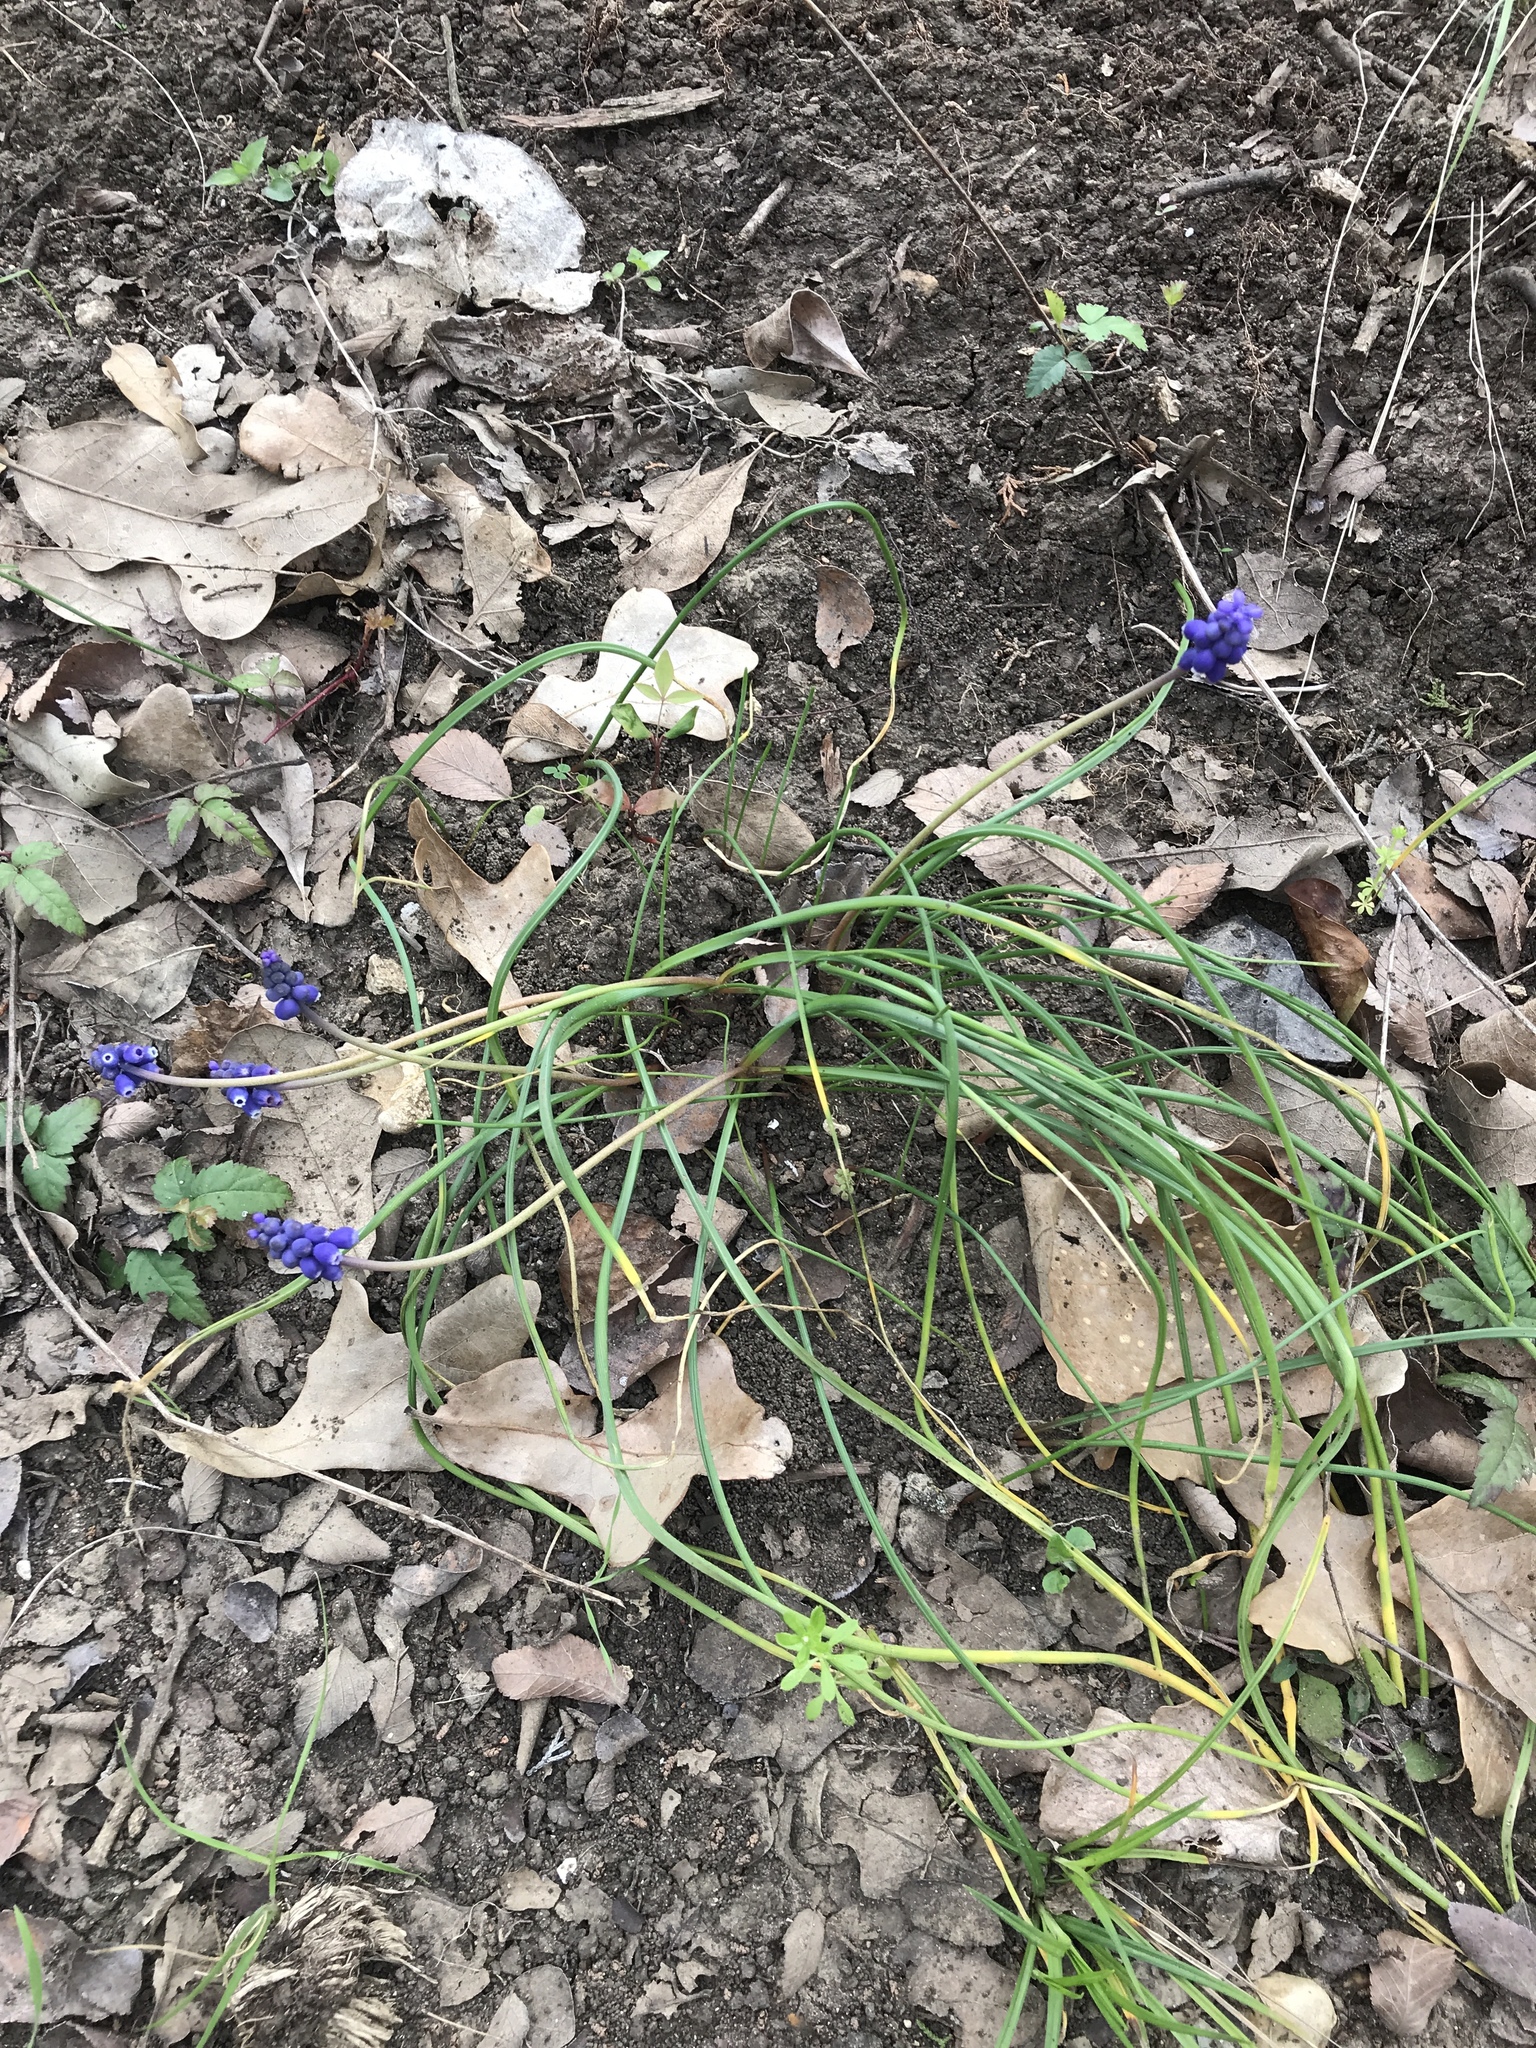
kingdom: Plantae
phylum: Tracheophyta
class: Liliopsida
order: Asparagales
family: Asparagaceae
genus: Muscari
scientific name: Muscari neglectum
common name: Grape-hyacinth
